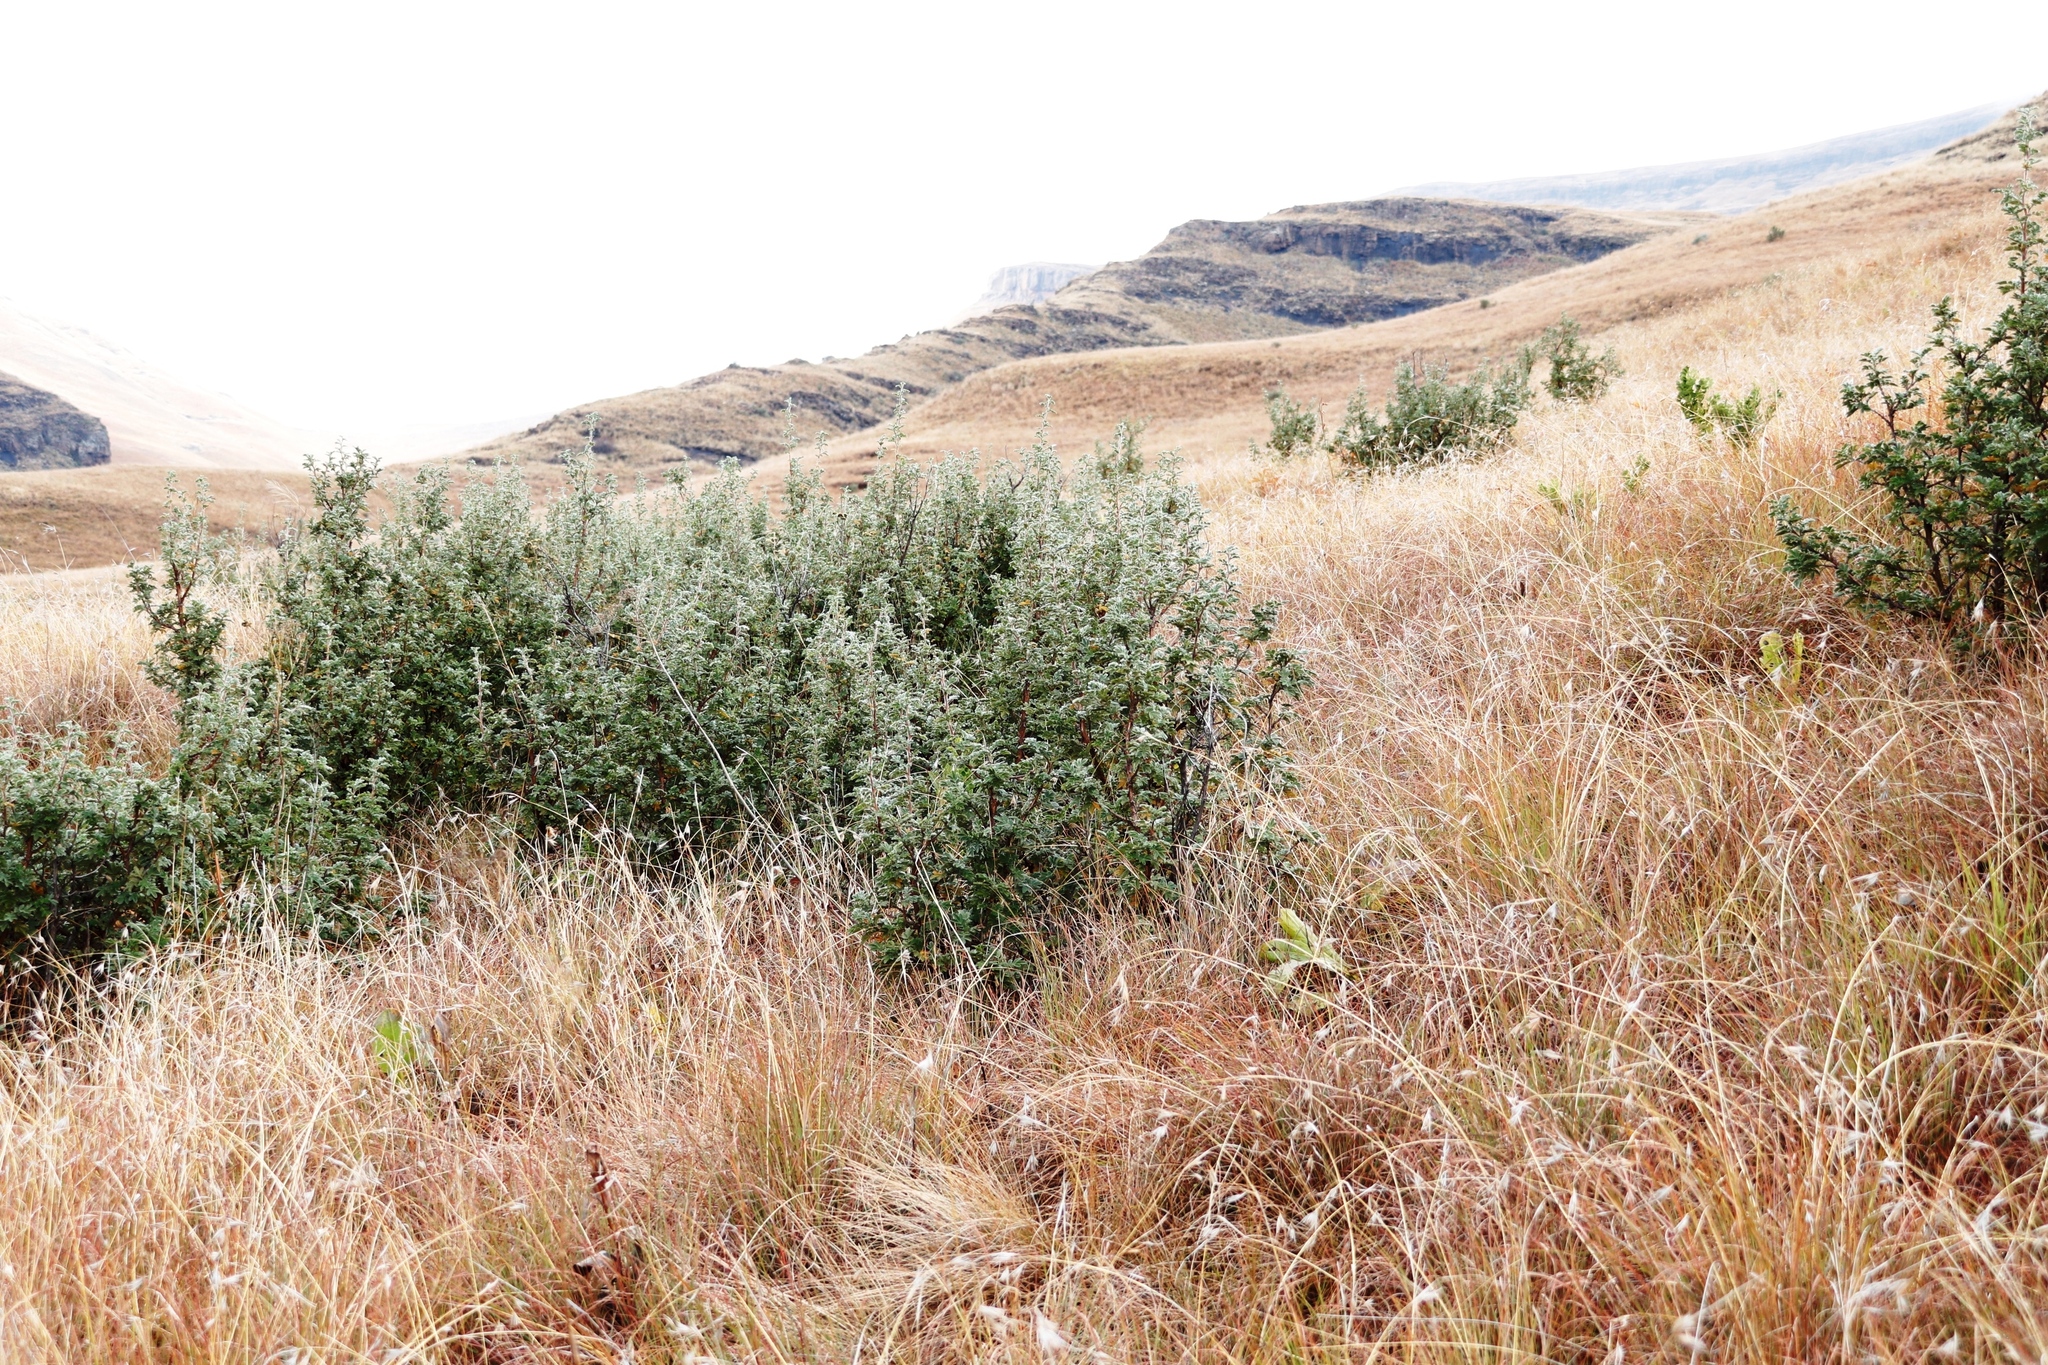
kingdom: Plantae
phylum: Tracheophyta
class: Magnoliopsida
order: Rosales
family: Rosaceae
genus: Leucosidea
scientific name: Leucosidea sericea
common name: Oldwood
